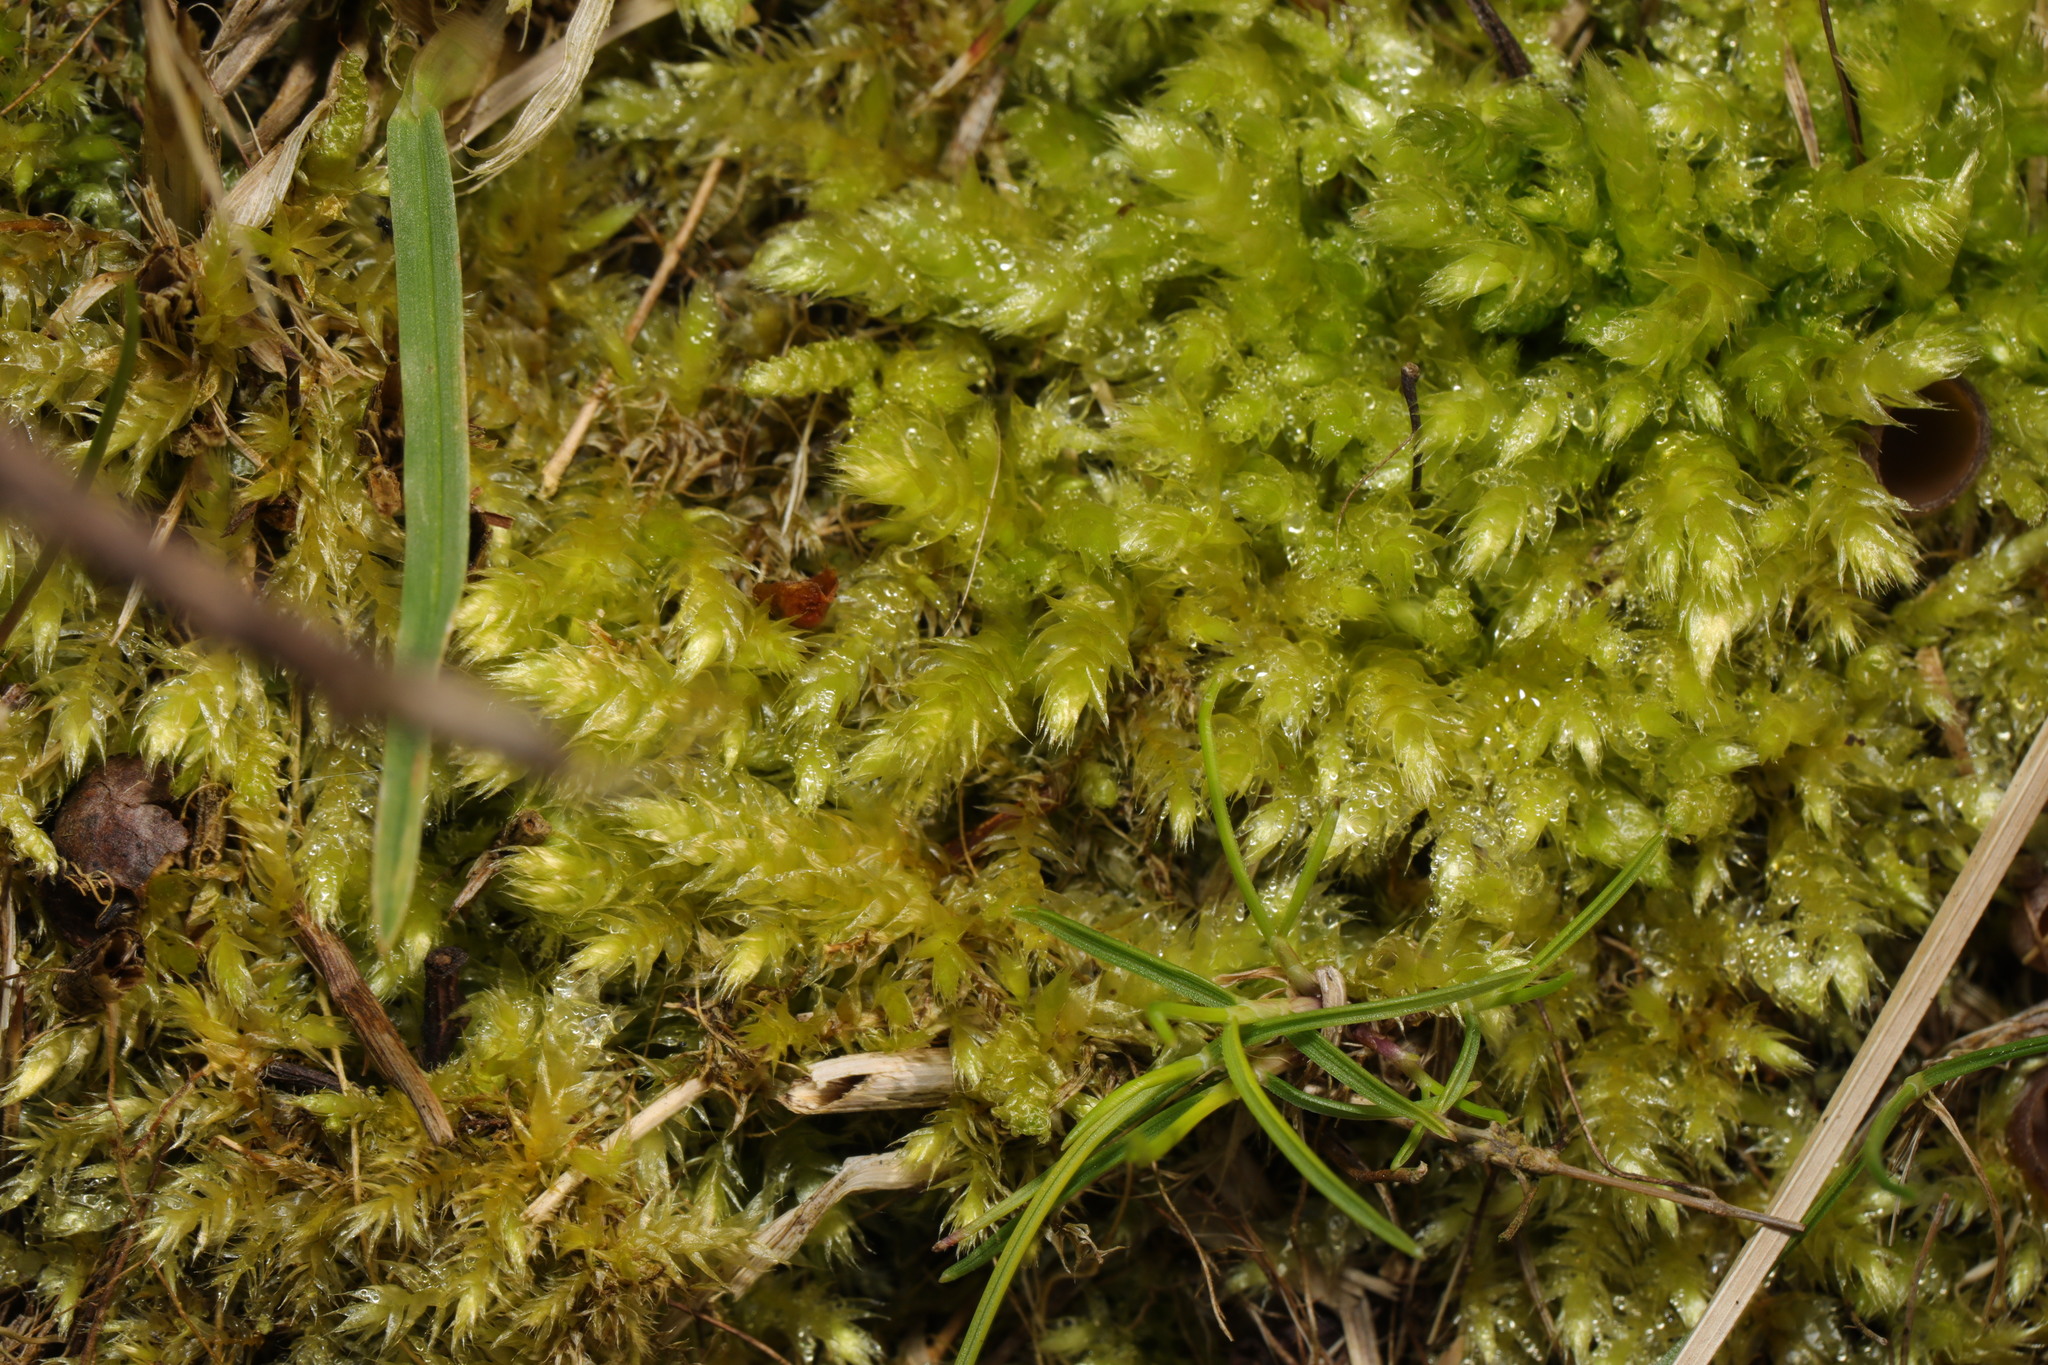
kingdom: Plantae
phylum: Bryophyta
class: Bryopsida
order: Hypnales
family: Brachytheciaceae
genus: Brachythecium
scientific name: Brachythecium rutabulum
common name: Rough-stalked feather-moss
